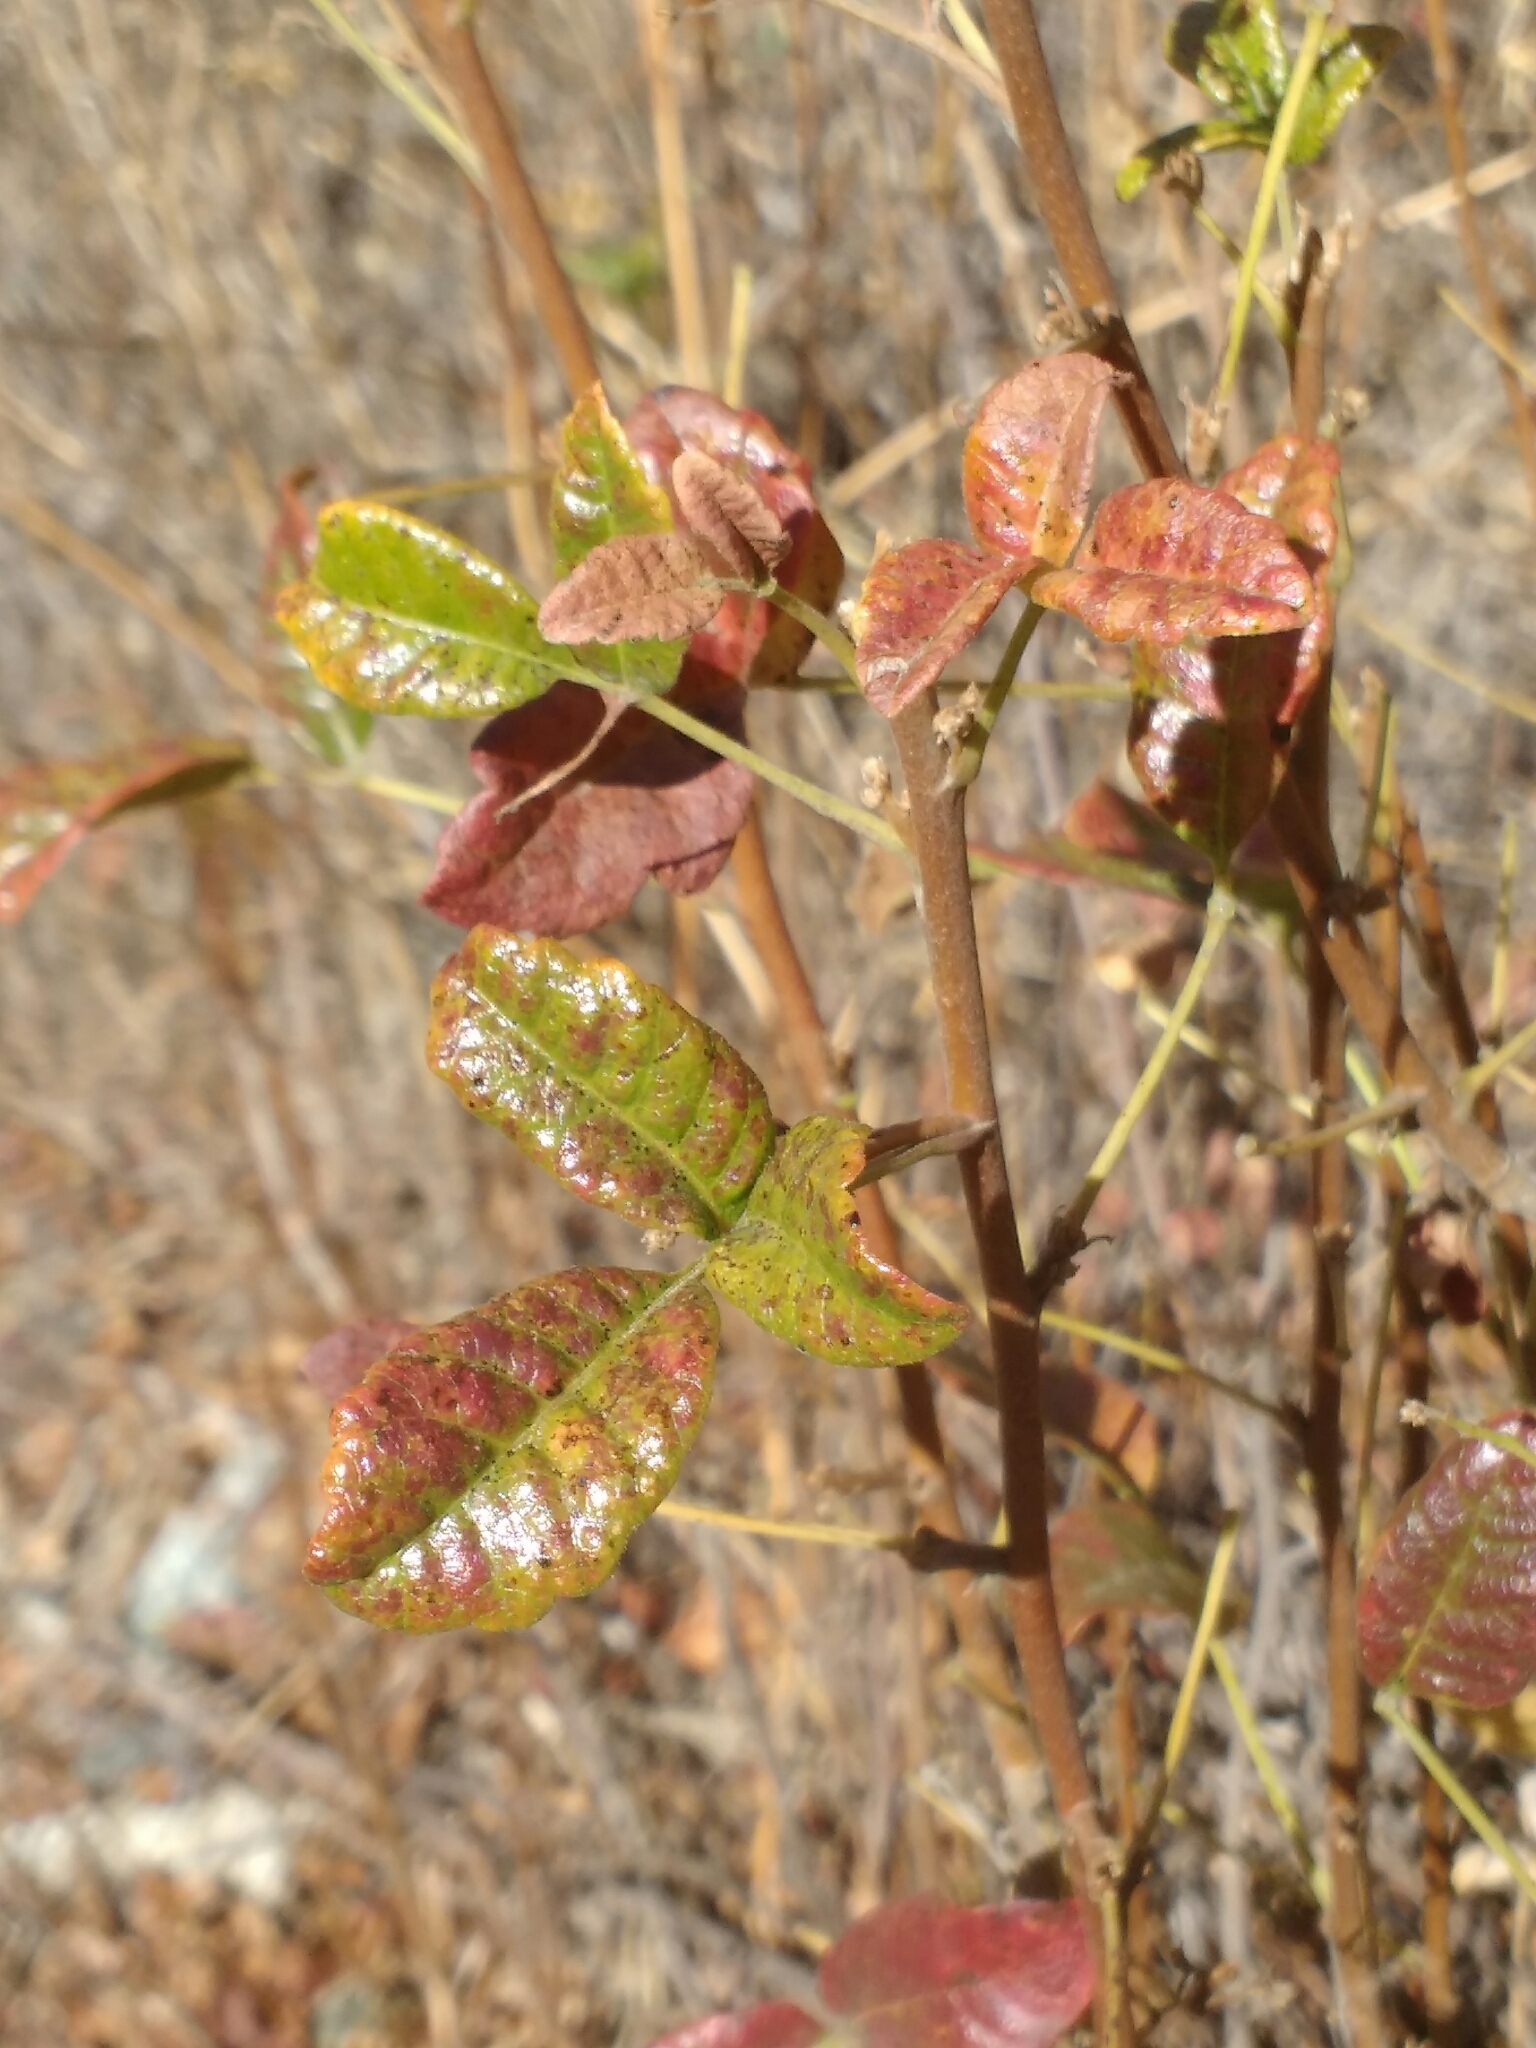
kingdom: Plantae
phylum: Tracheophyta
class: Magnoliopsida
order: Sapindales
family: Anacardiaceae
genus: Toxicodendron
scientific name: Toxicodendron diversilobum
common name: Pacific poison-oak
